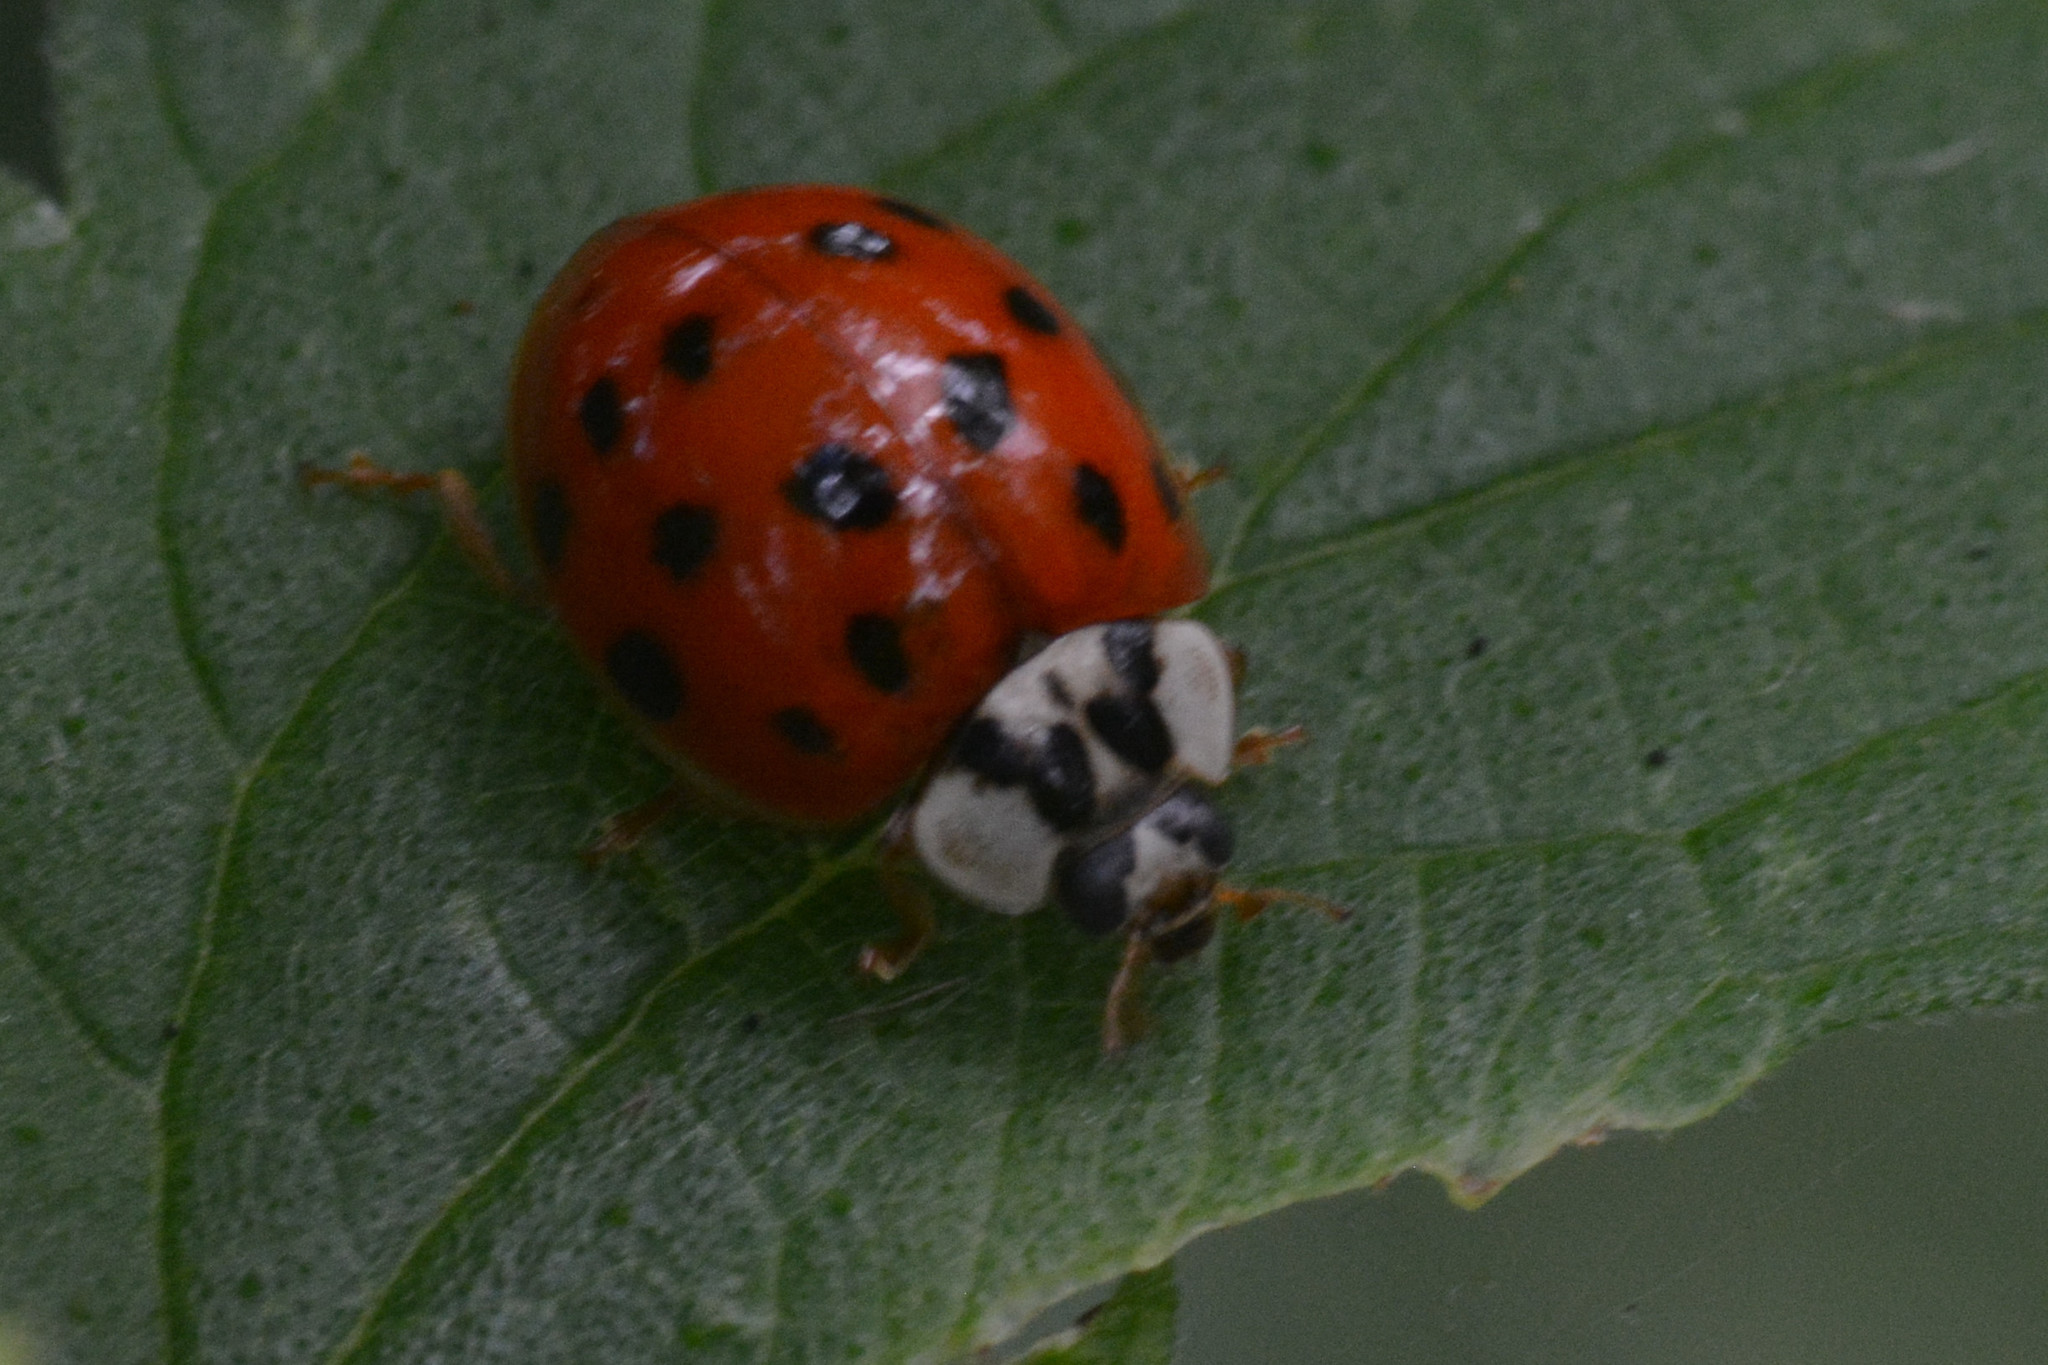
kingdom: Animalia
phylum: Arthropoda
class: Insecta
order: Coleoptera
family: Coccinellidae
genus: Harmonia
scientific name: Harmonia axyridis
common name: Harlequin ladybird
